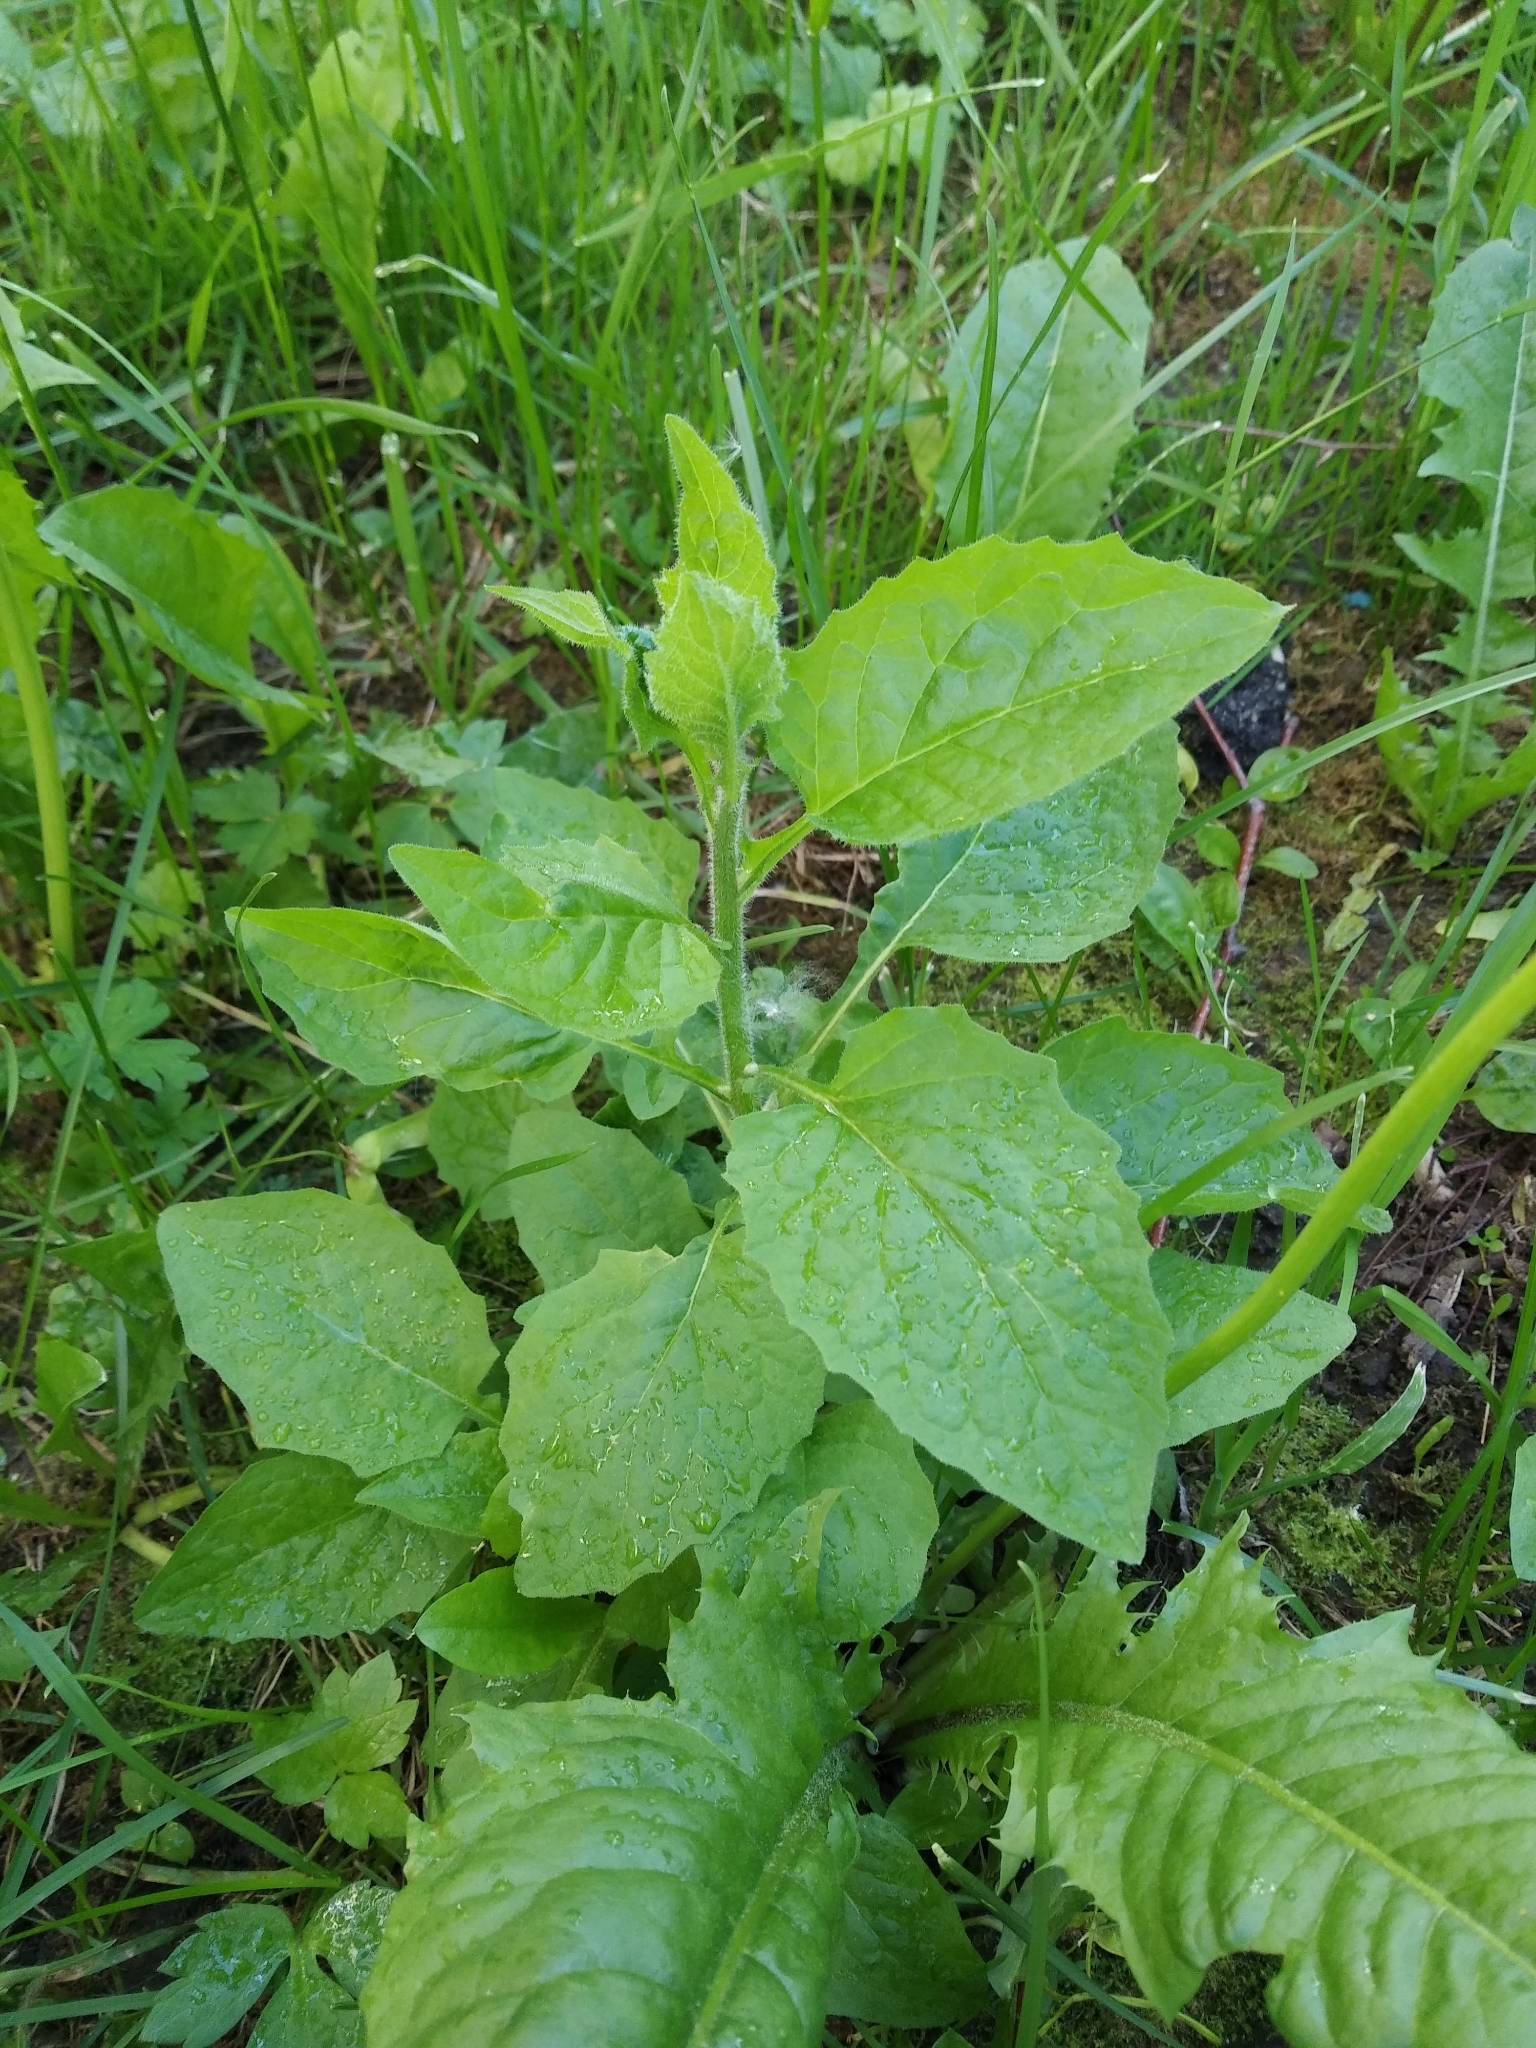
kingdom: Plantae
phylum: Tracheophyta
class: Magnoliopsida
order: Asterales
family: Asteraceae
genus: Lapsana
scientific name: Lapsana communis
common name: Nipplewort
